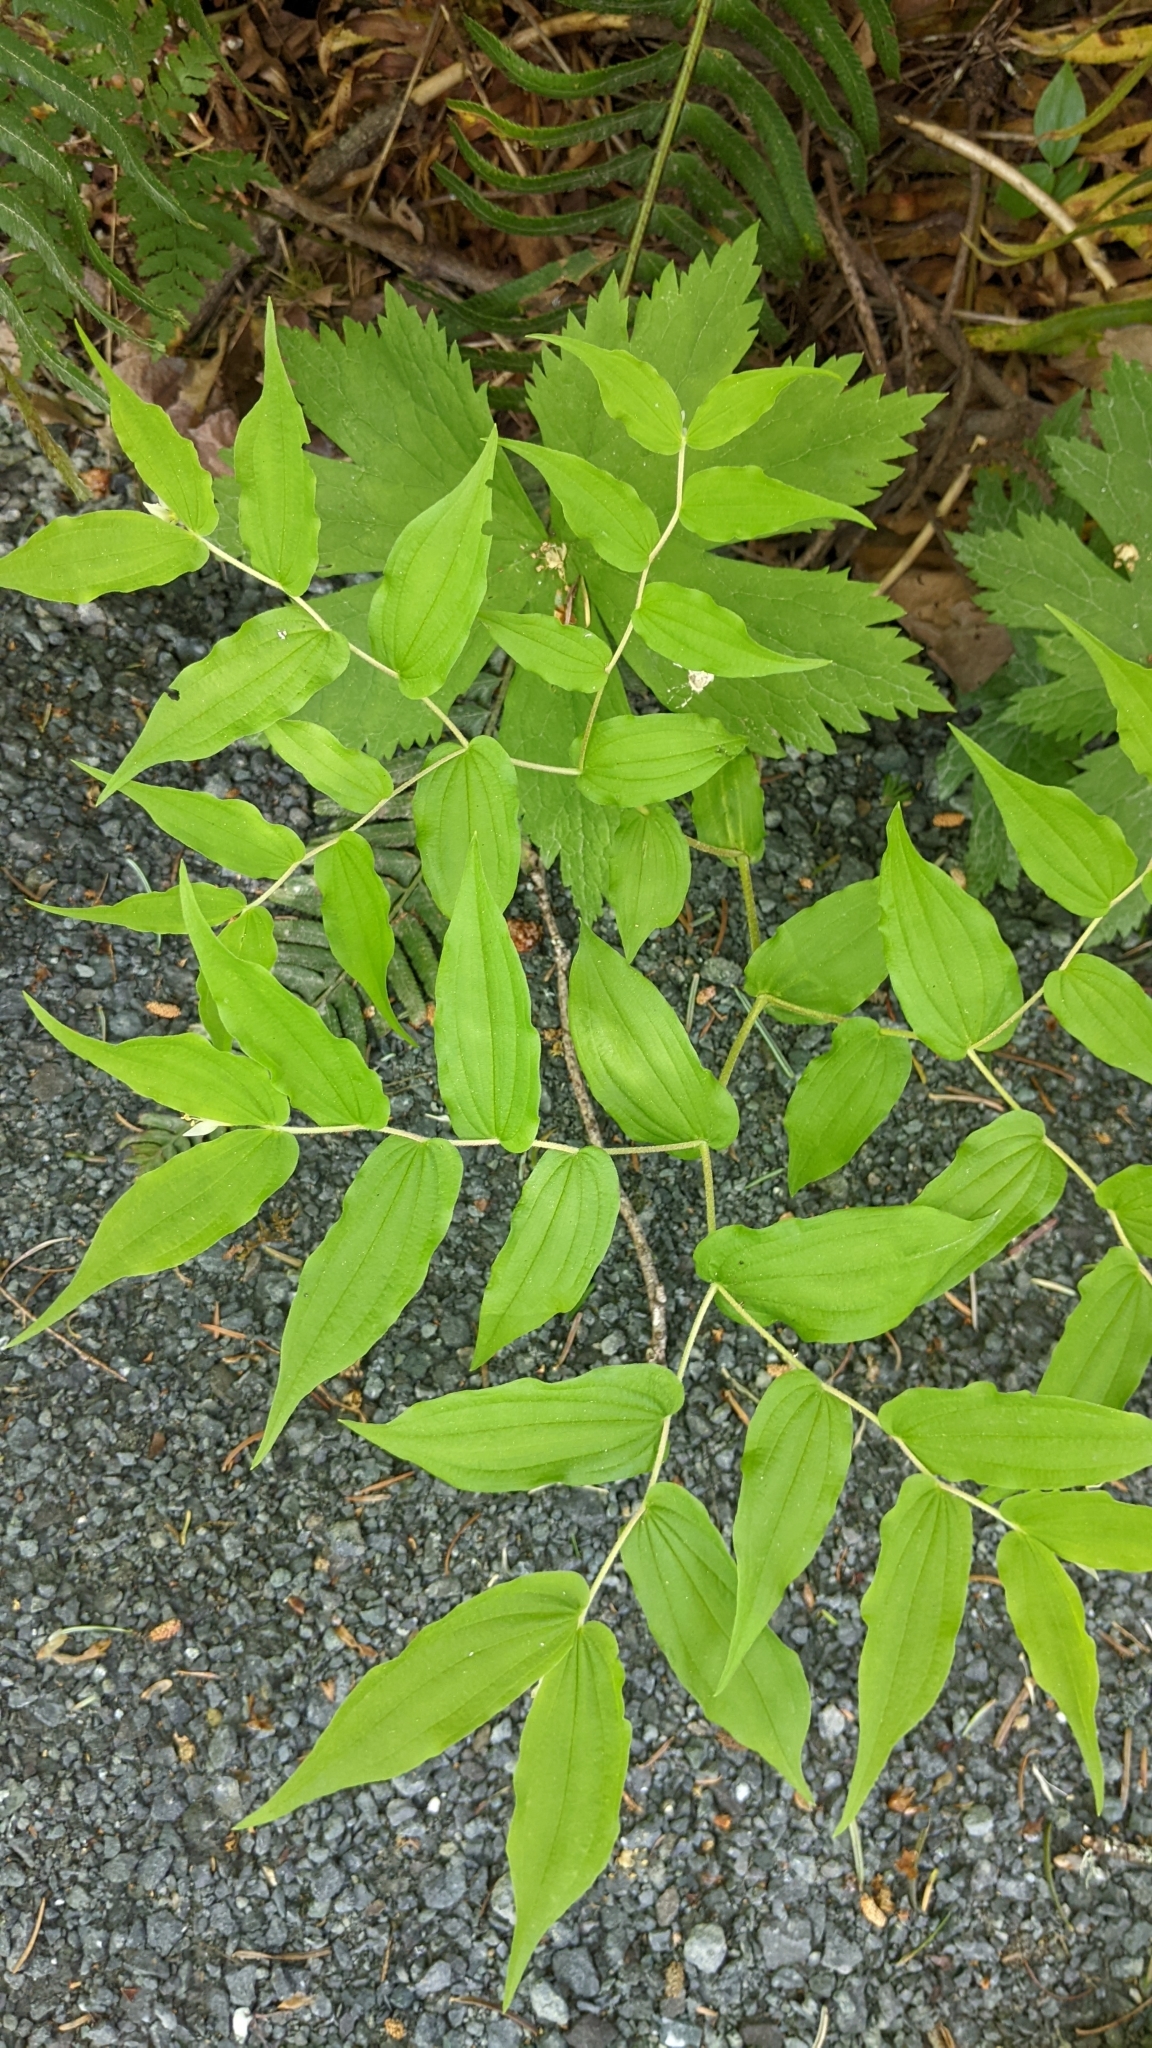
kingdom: Plantae
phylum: Tracheophyta
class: Liliopsida
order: Liliales
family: Liliaceae
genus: Prosartes
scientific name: Prosartes hookeri
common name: Fairy-bells
